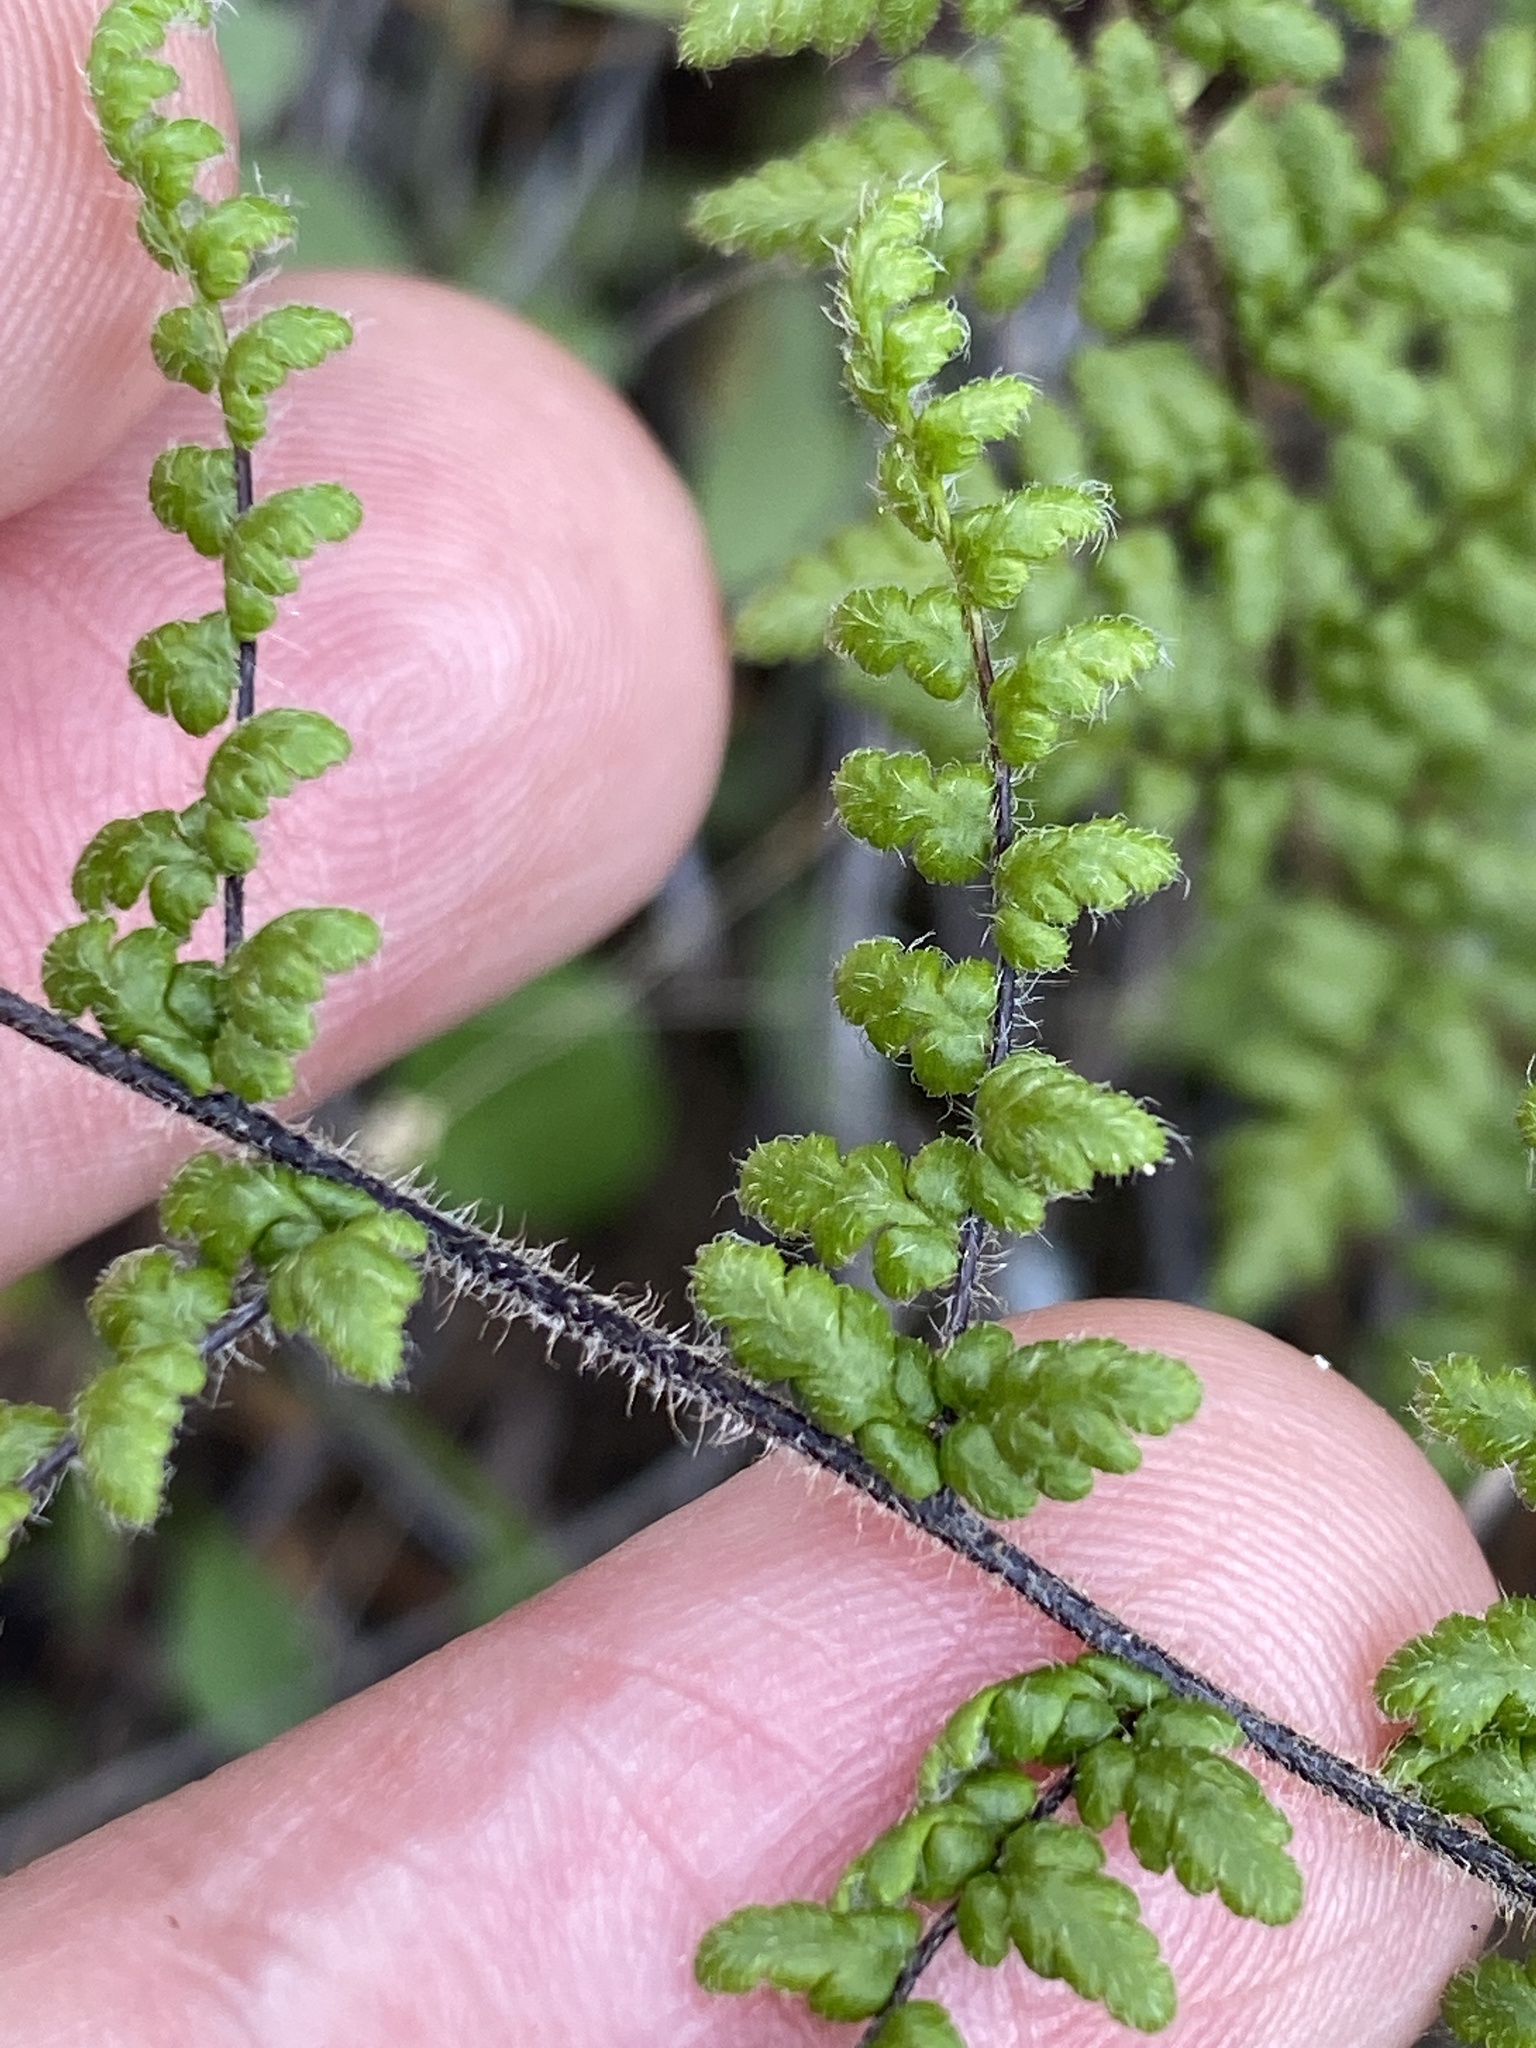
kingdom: Plantae
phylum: Tracheophyta
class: Polypodiopsida
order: Polypodiales
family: Pteridaceae
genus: Myriopteris
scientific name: Myriopteris lanosa
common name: Hairy lip fern
